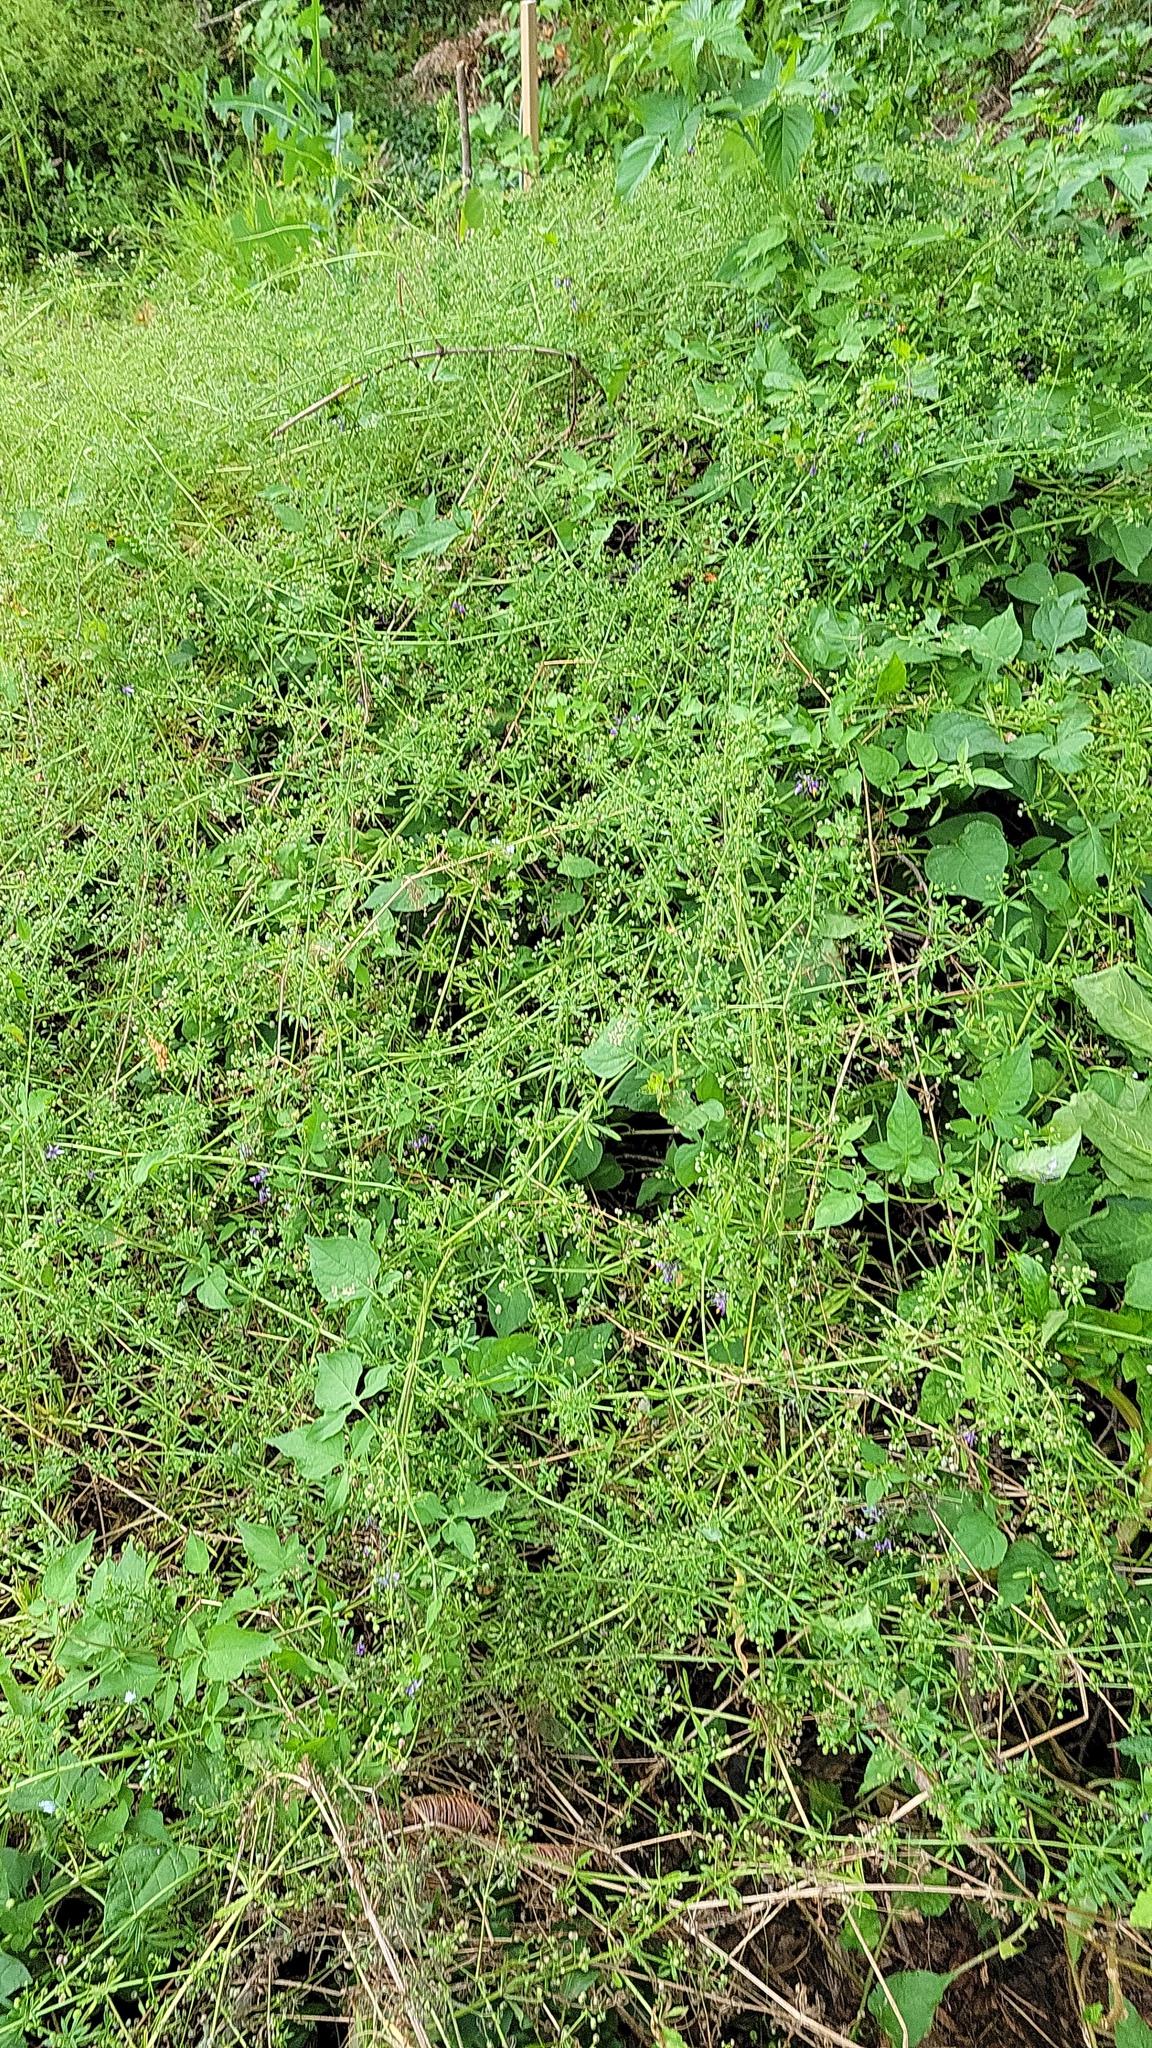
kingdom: Plantae
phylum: Tracheophyta
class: Magnoliopsida
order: Gentianales
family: Rubiaceae
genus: Galium
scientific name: Galium aparine
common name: Cleavers
